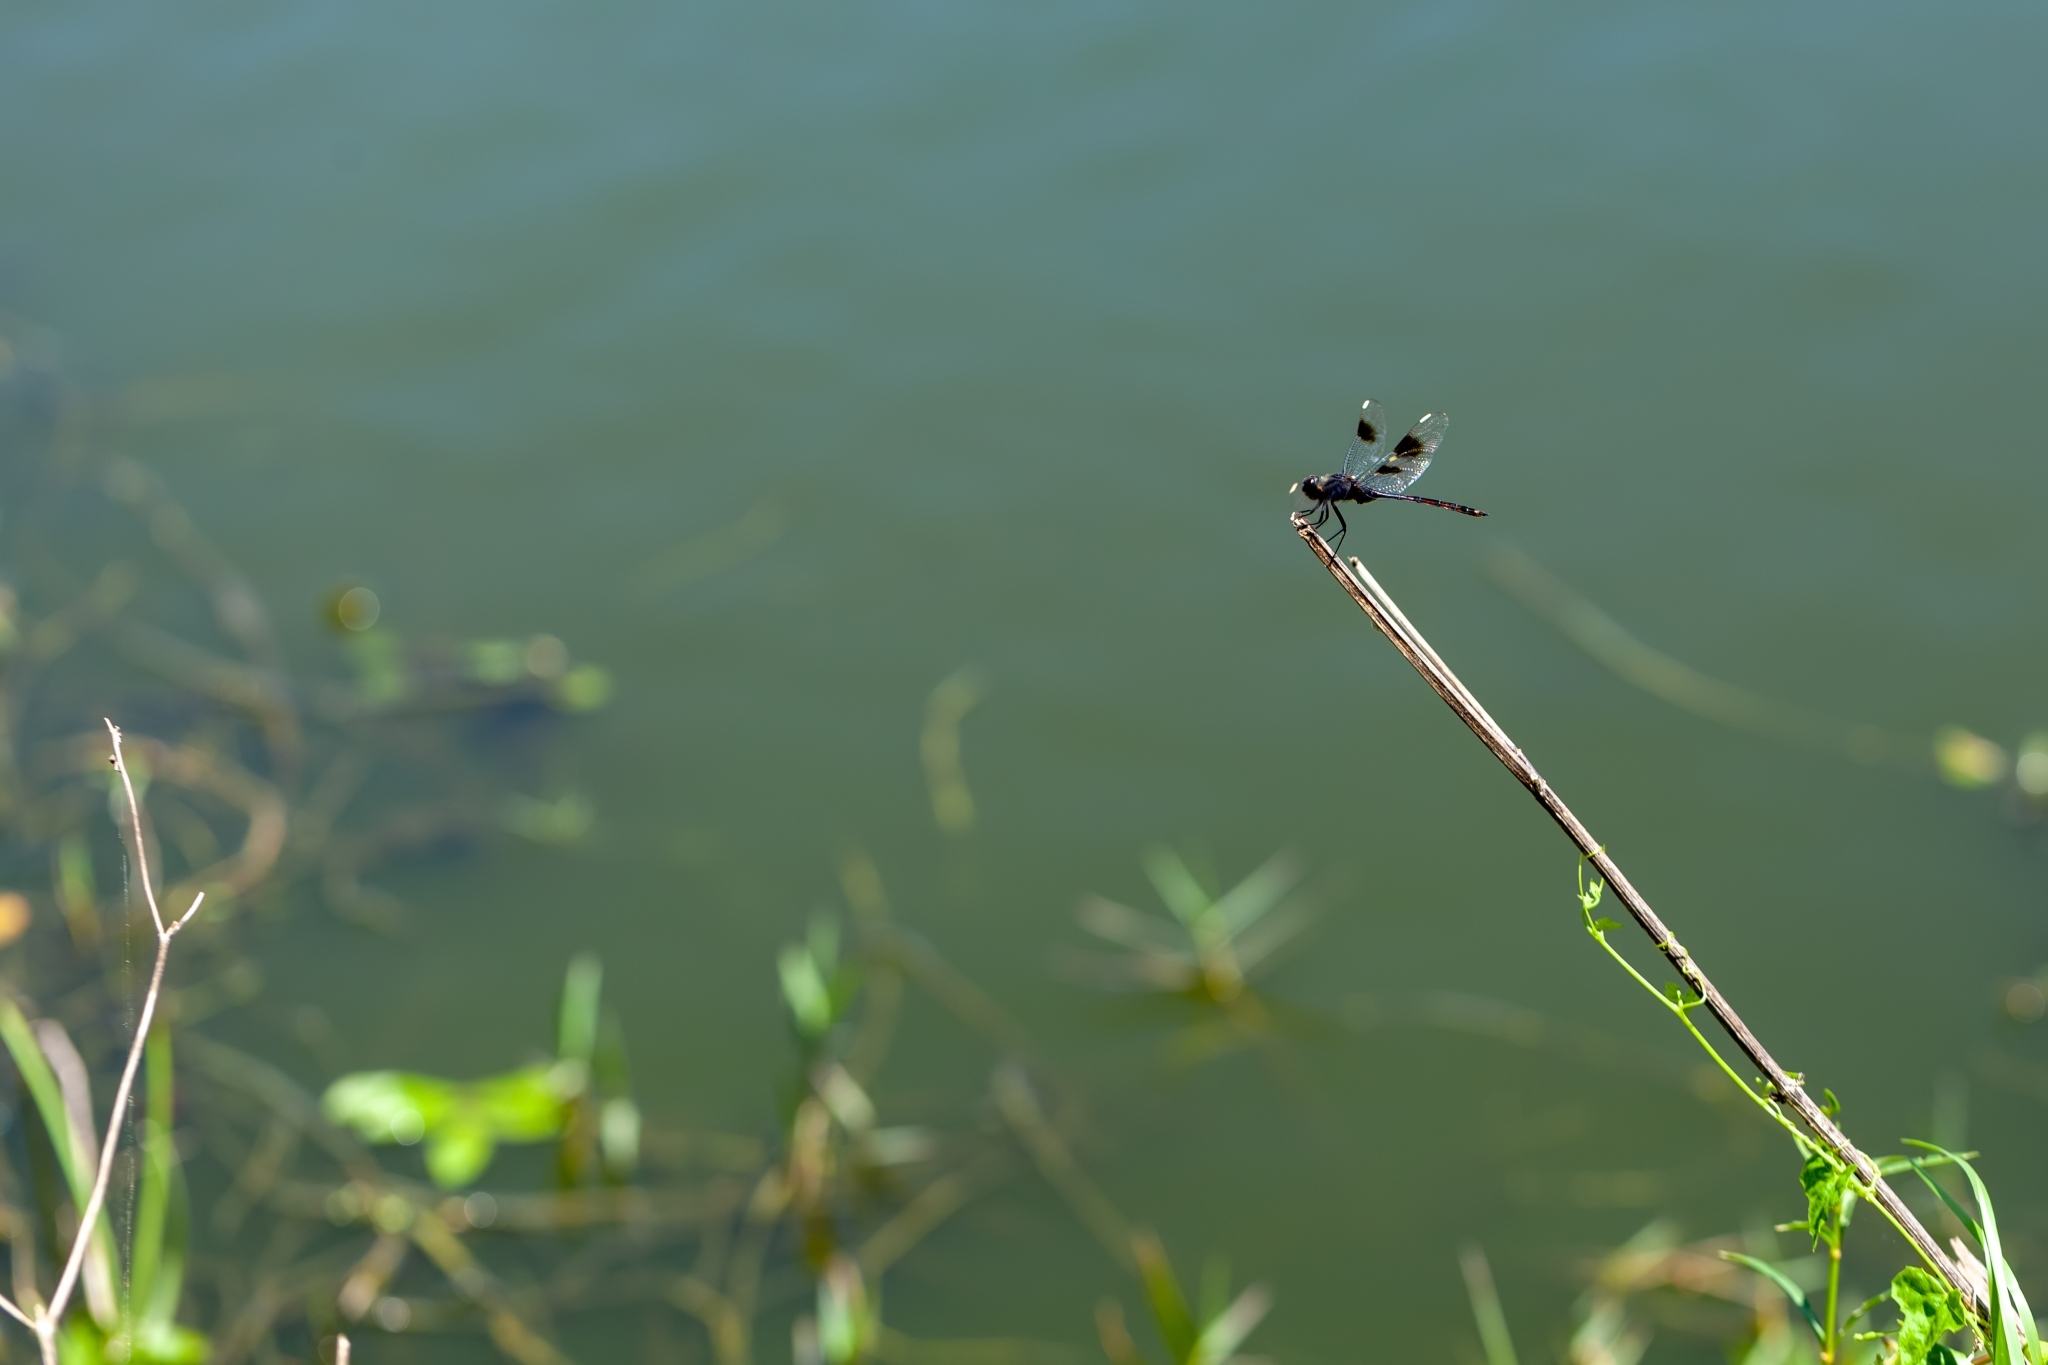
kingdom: Animalia
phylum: Arthropoda
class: Insecta
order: Odonata
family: Libellulidae
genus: Brachymesia
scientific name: Brachymesia gravida
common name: Four-spotted pennant
